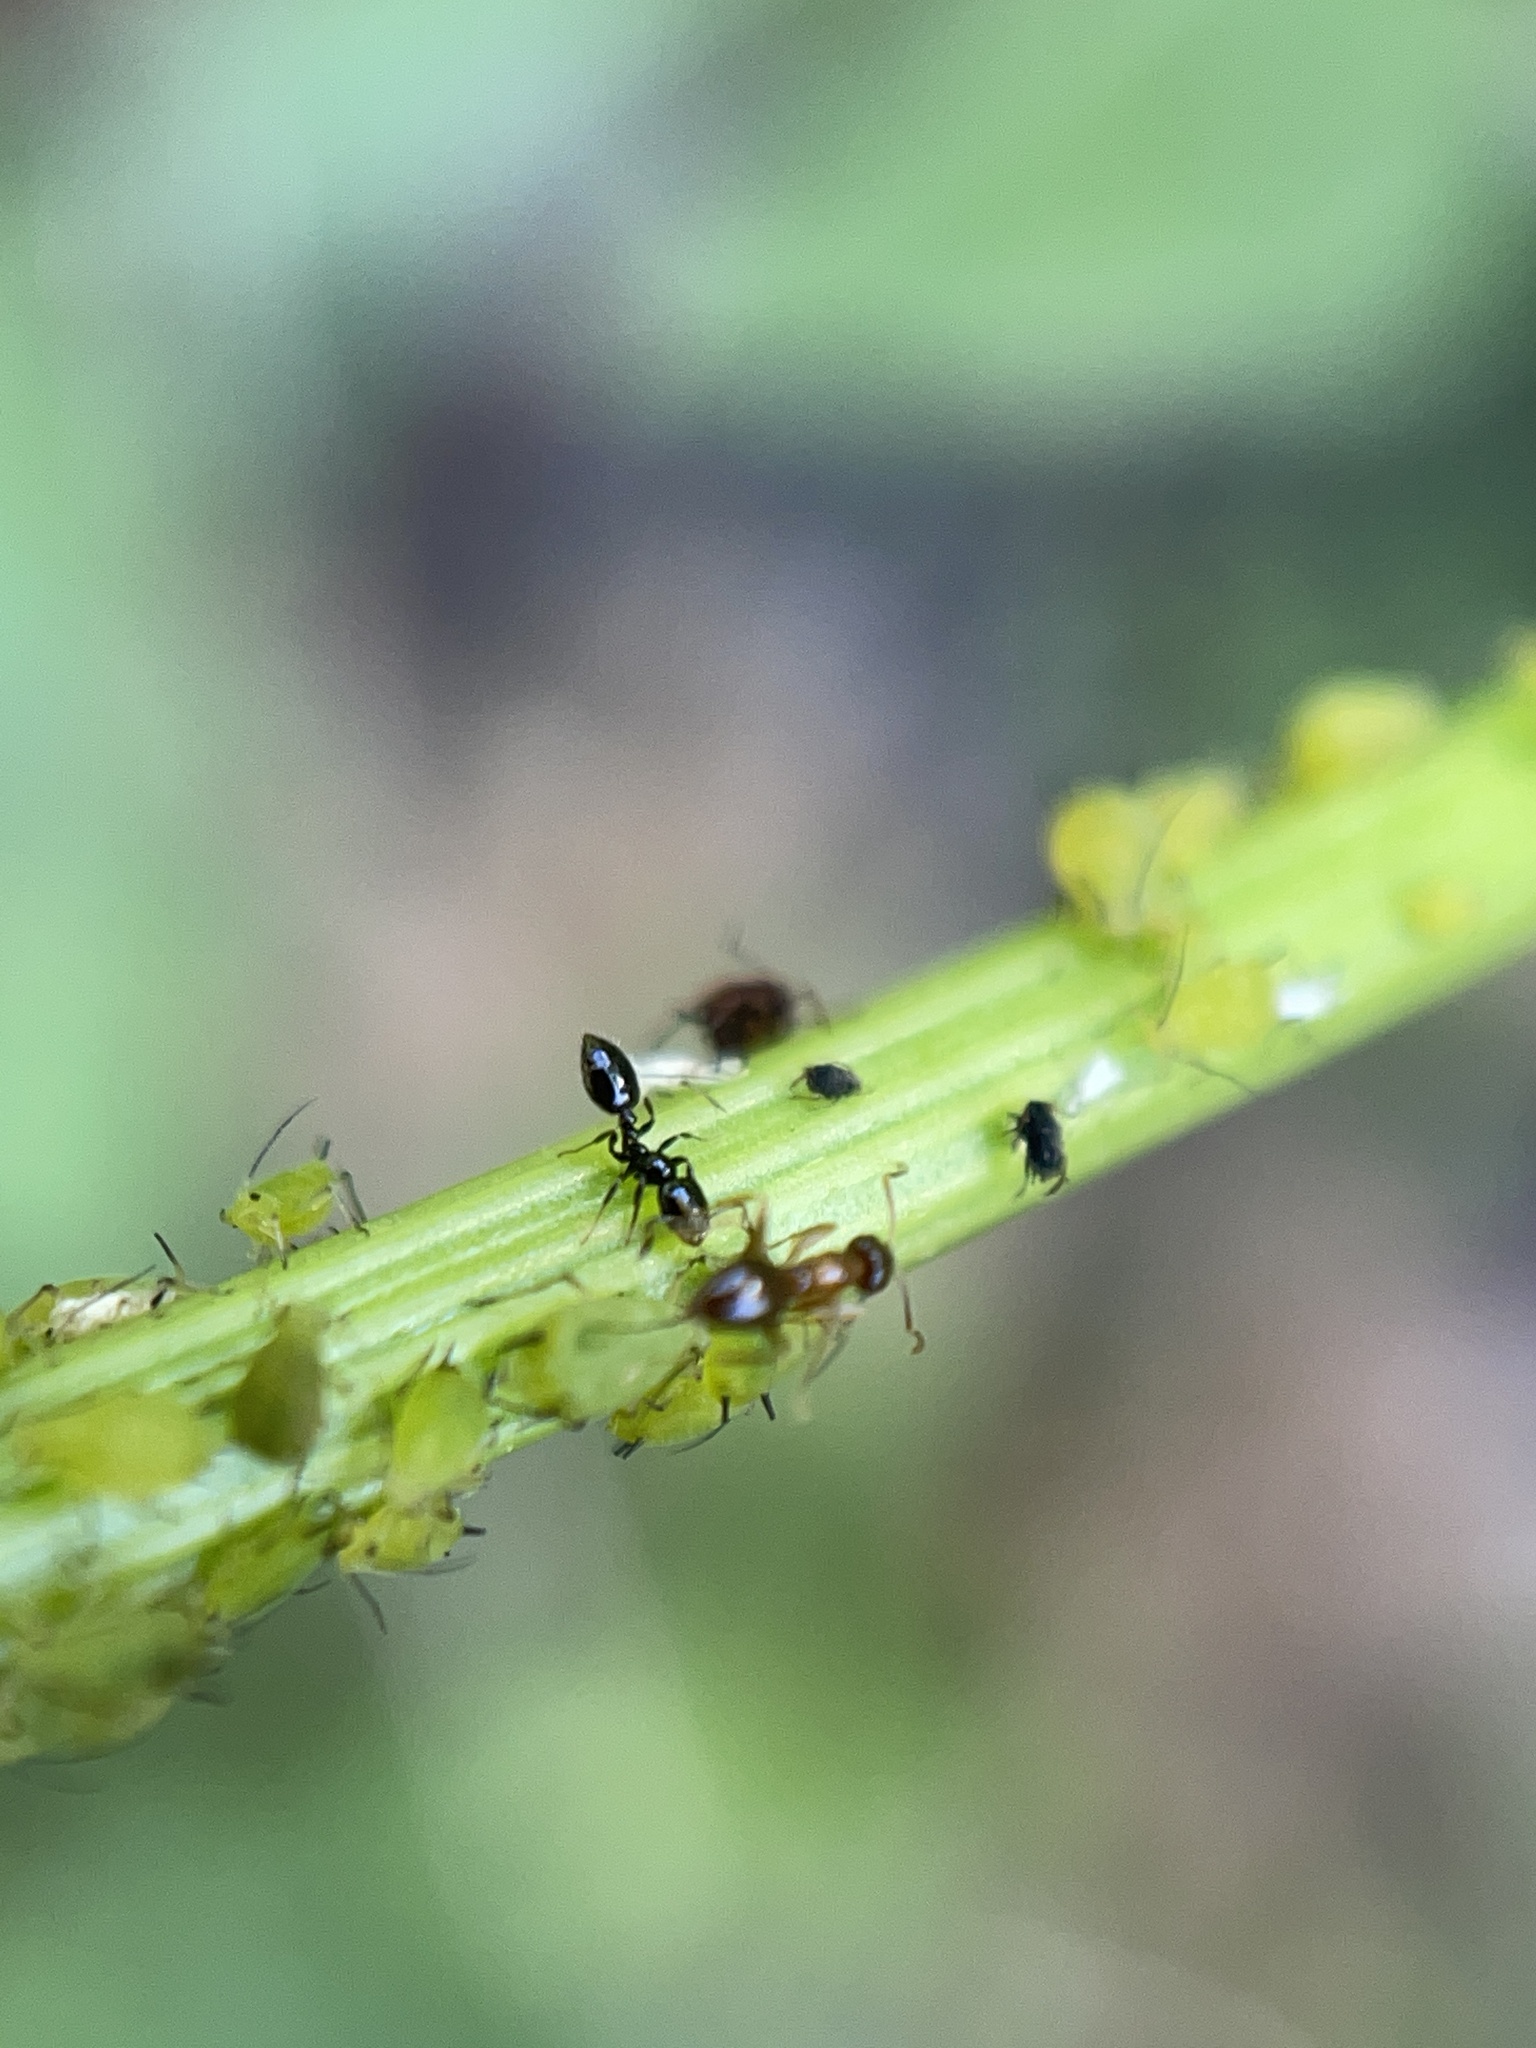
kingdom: Animalia
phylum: Arthropoda
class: Insecta
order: Hymenoptera
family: Formicidae
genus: Monomorium
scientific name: Monomorium minimum
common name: Little black ant
